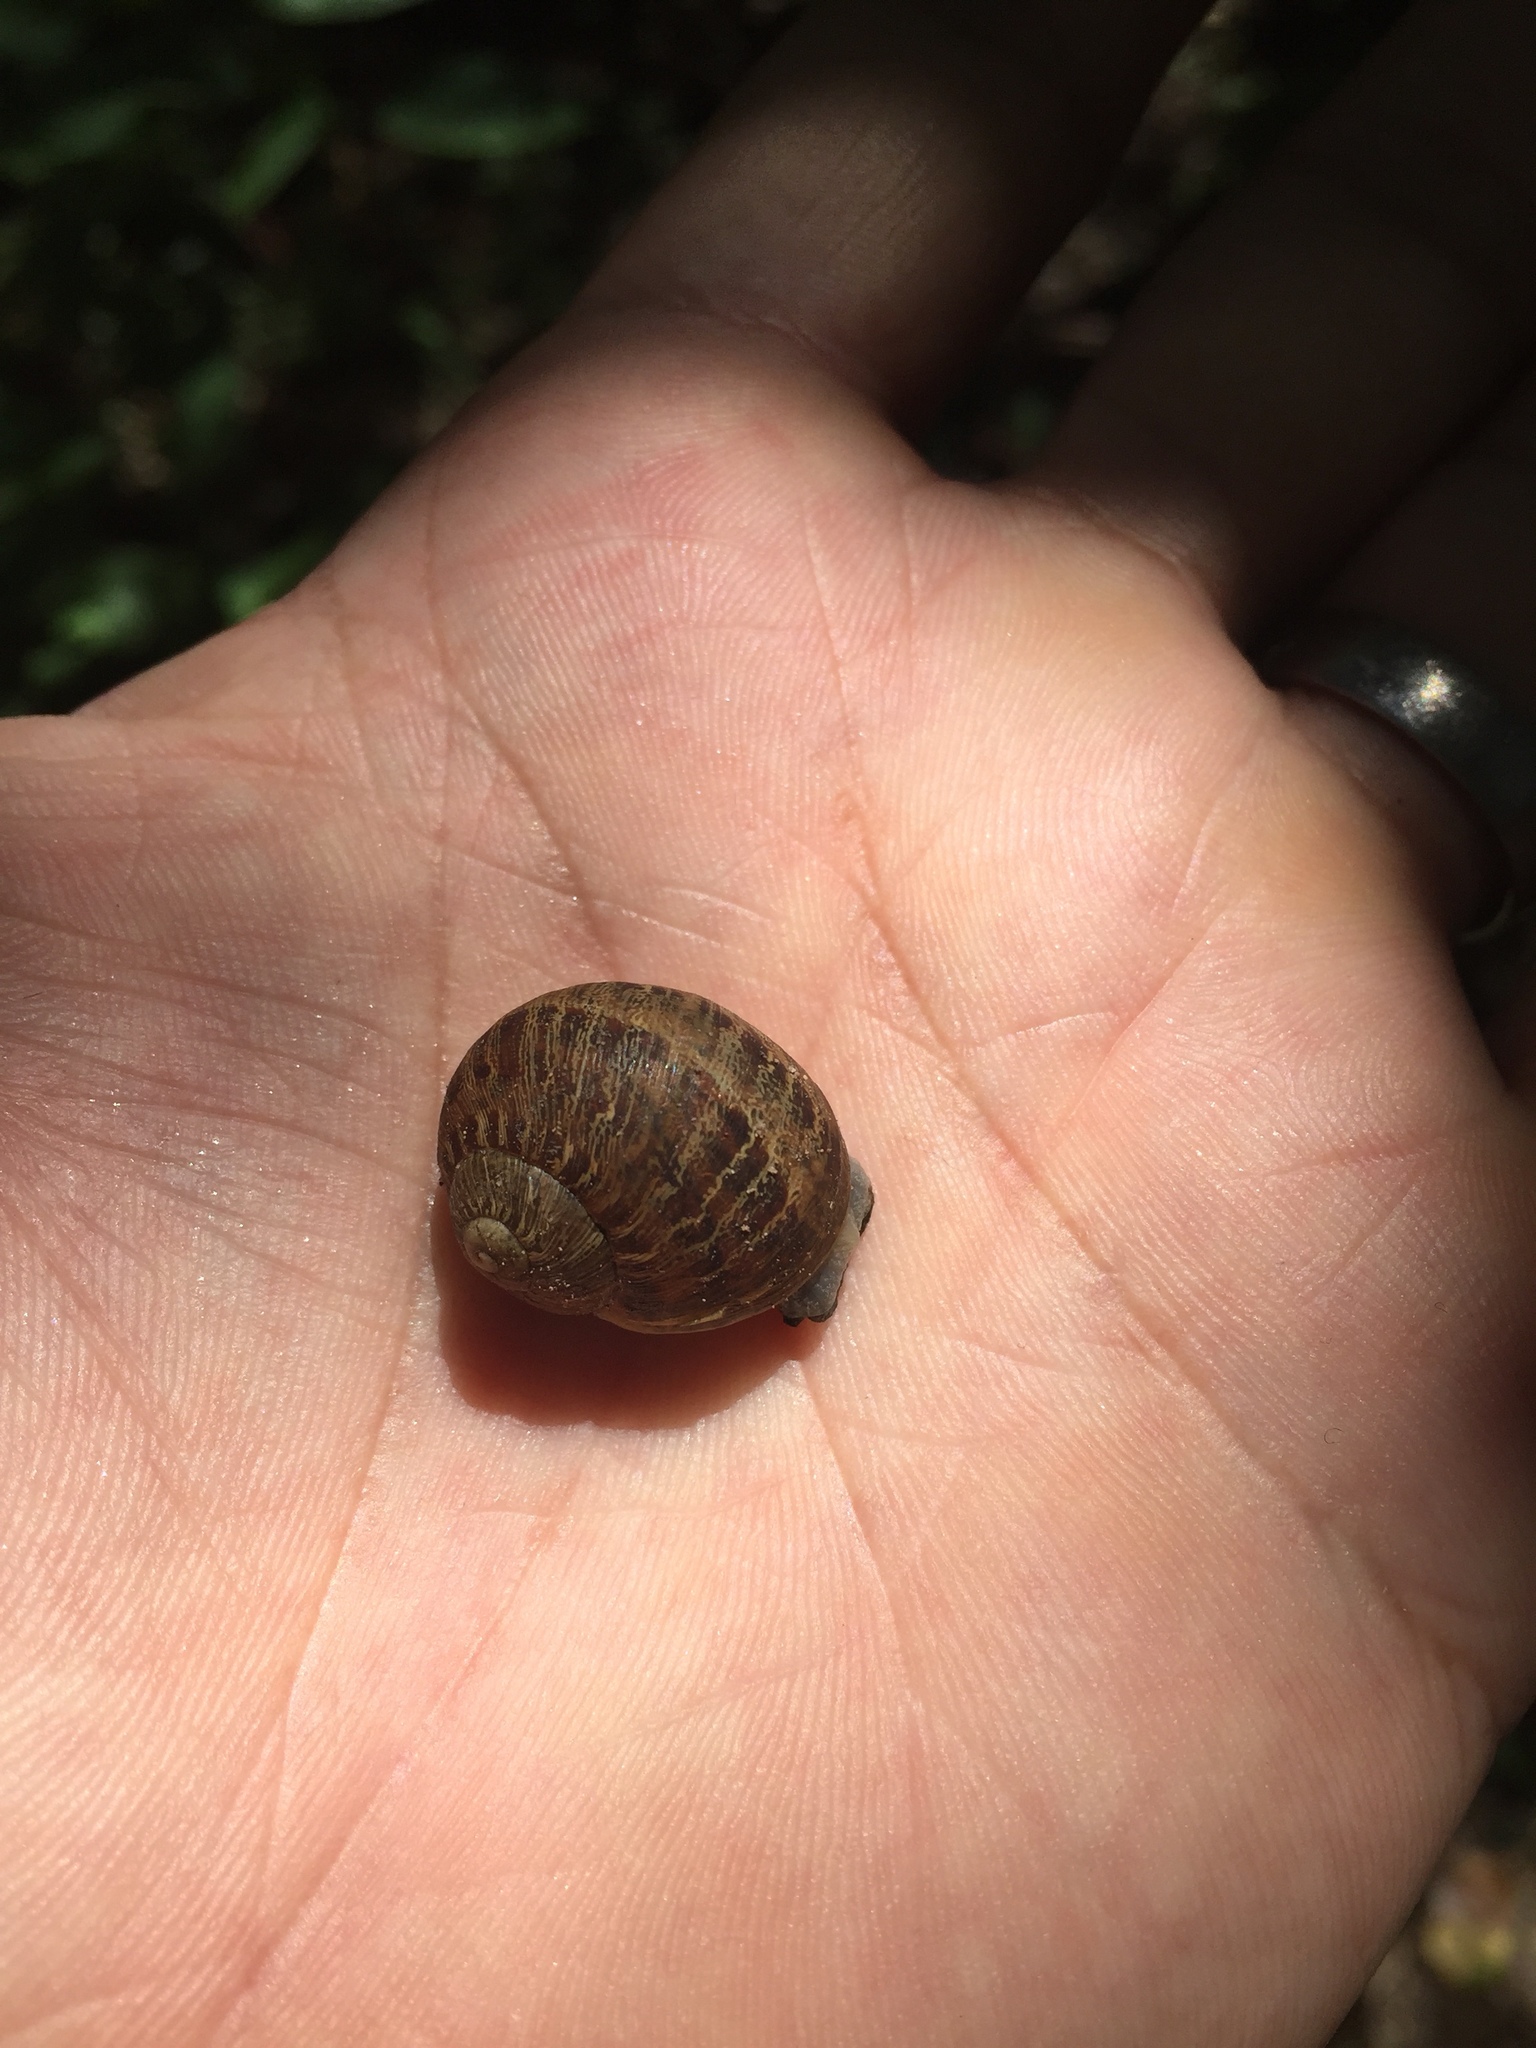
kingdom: Animalia
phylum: Mollusca
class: Gastropoda
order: Stylommatophora
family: Helicidae
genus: Cornu
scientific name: Cornu aspersum
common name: Brown garden snail
